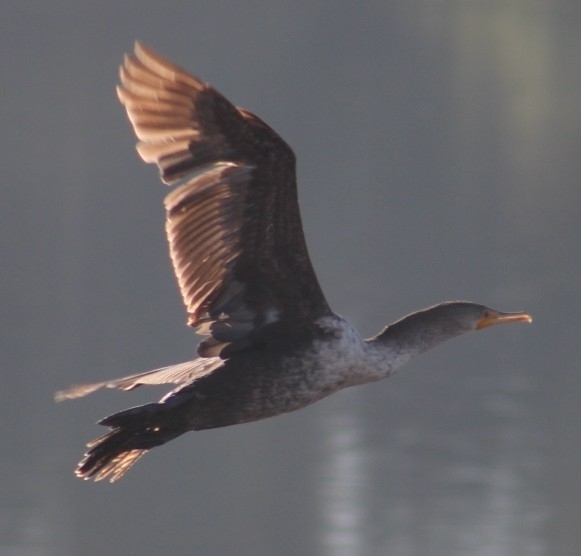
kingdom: Animalia
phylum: Chordata
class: Aves
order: Suliformes
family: Phalacrocoracidae
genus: Phalacrocorax
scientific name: Phalacrocorax auritus
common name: Double-crested cormorant
